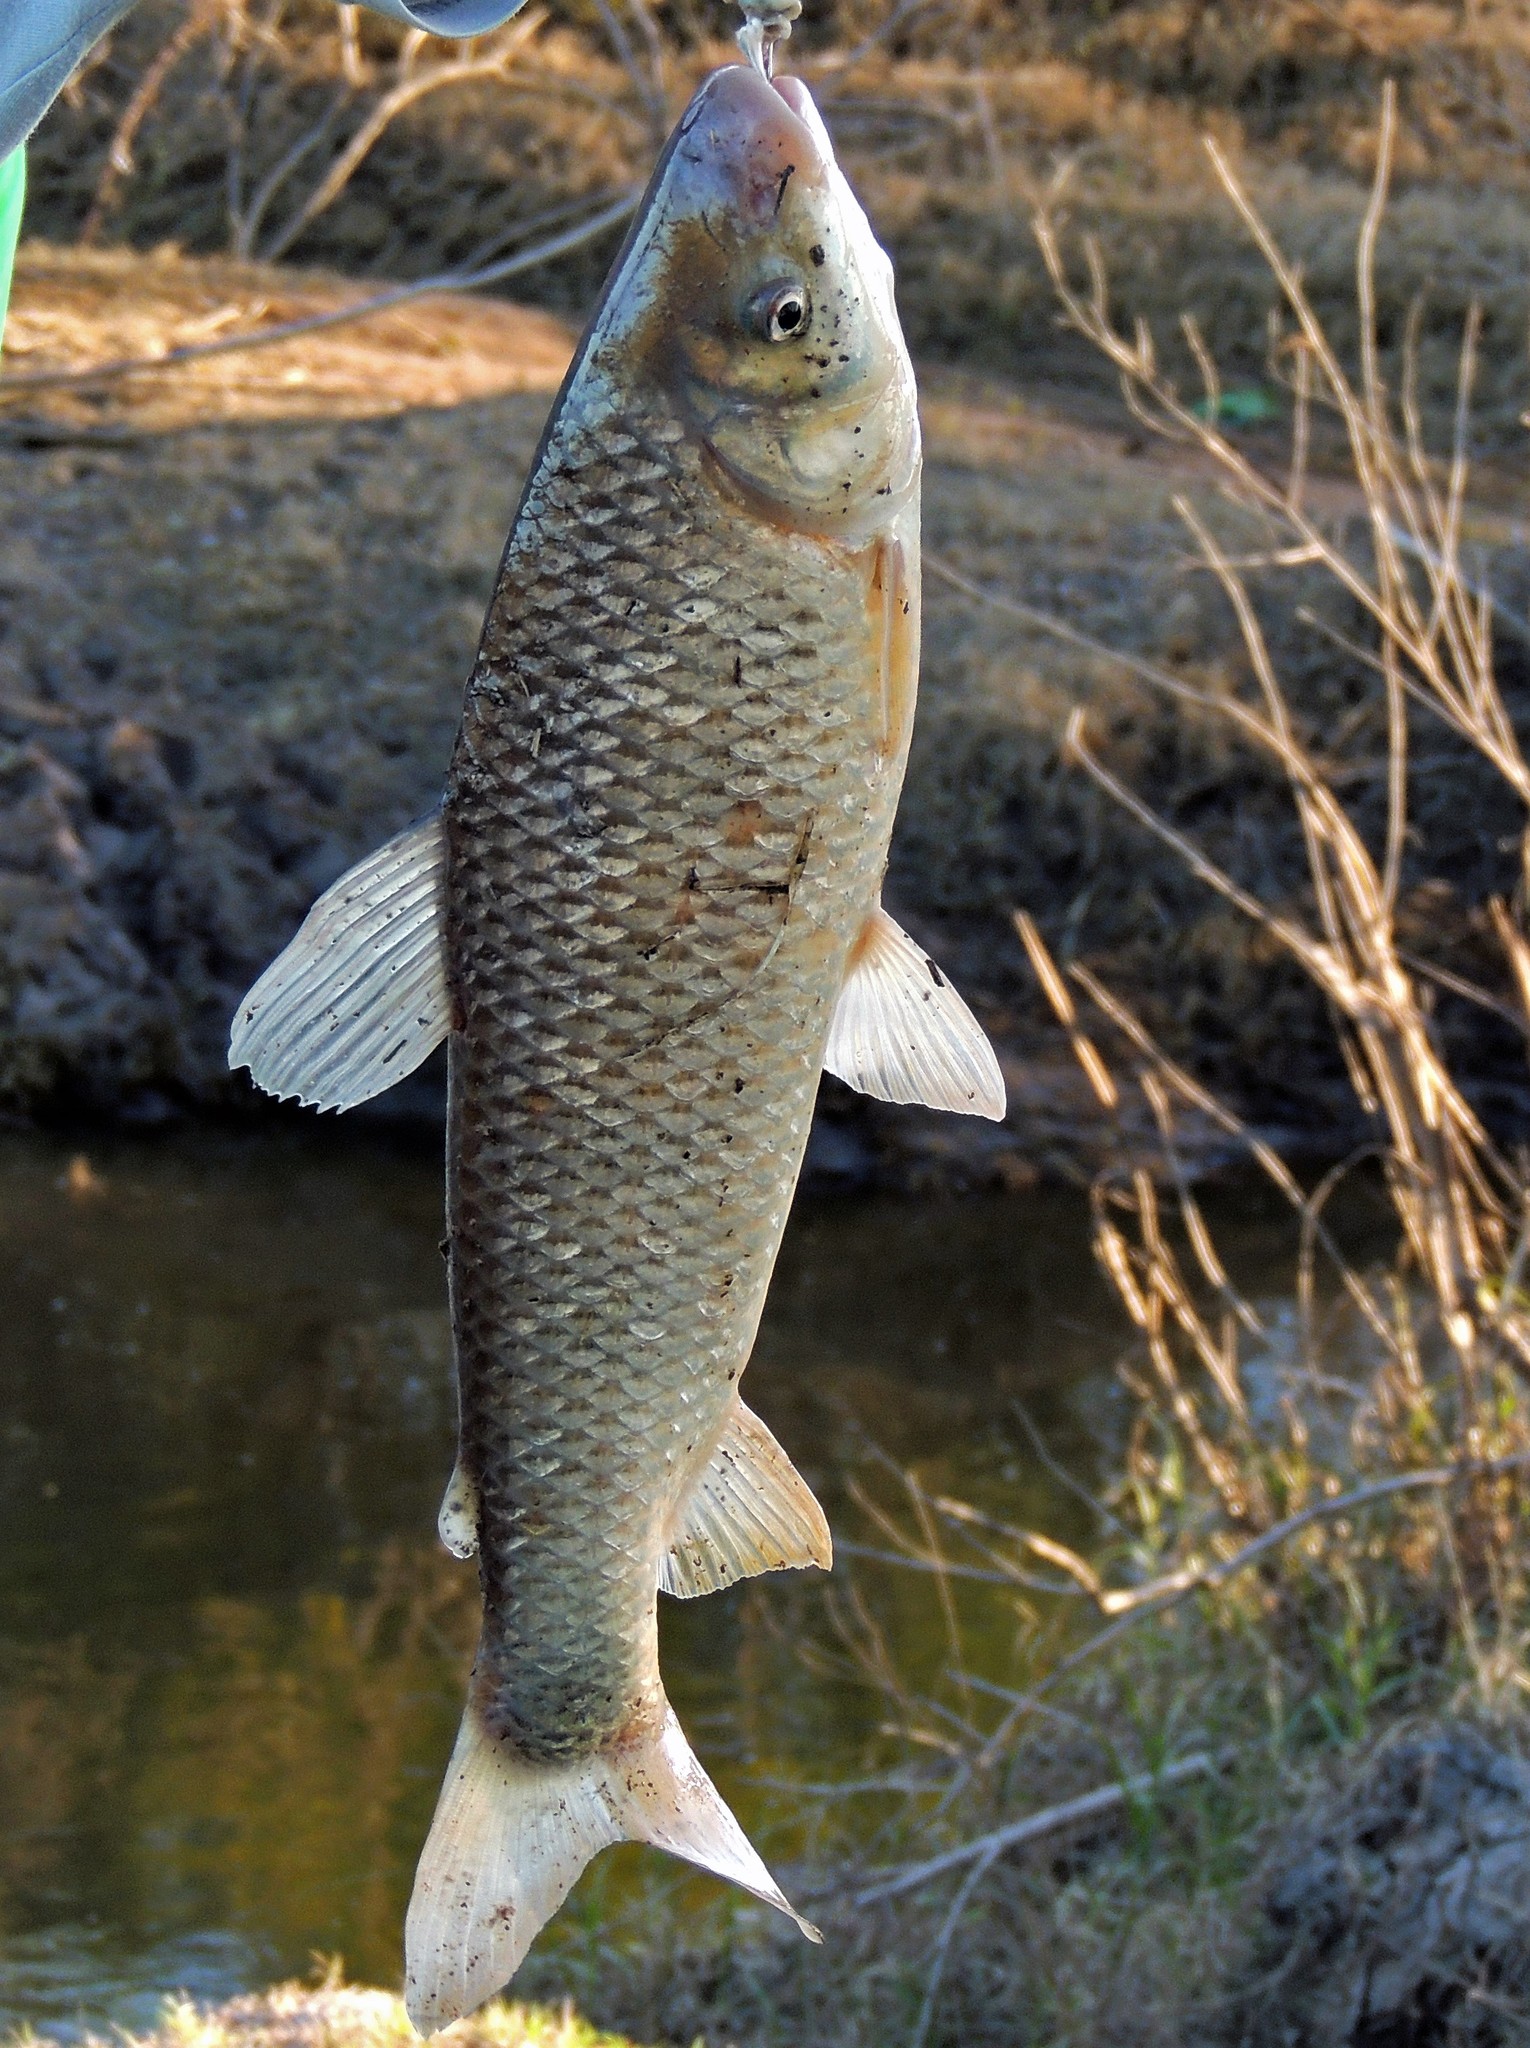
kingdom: Animalia
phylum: Chordata
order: Characiformes
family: Anostomidae
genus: Leporinus
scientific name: Leporinus obtusidens
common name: Characin
